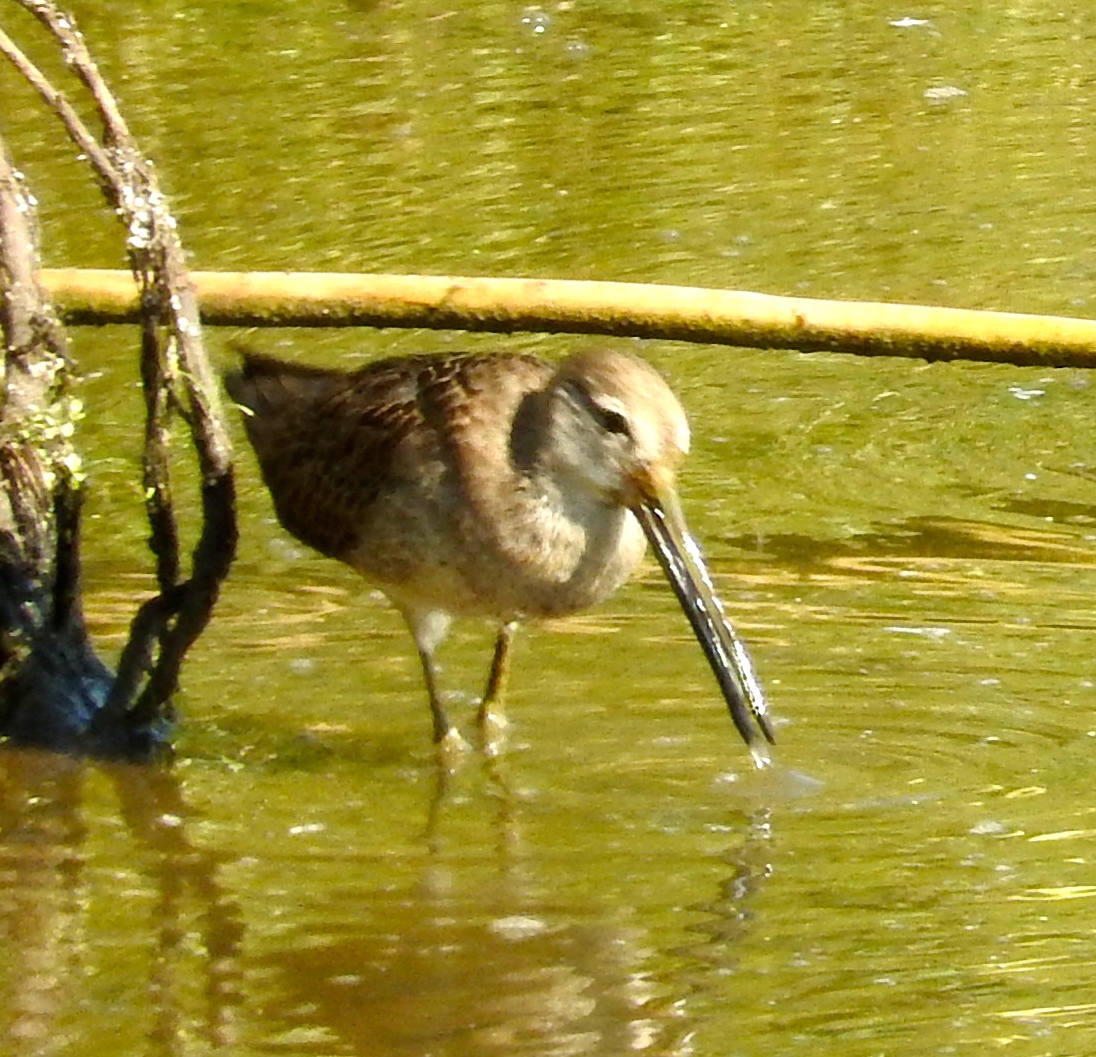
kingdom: Animalia
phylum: Chordata
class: Aves
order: Charadriiformes
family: Scolopacidae
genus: Limnodromus
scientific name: Limnodromus scolopaceus
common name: Long-billed dowitcher
